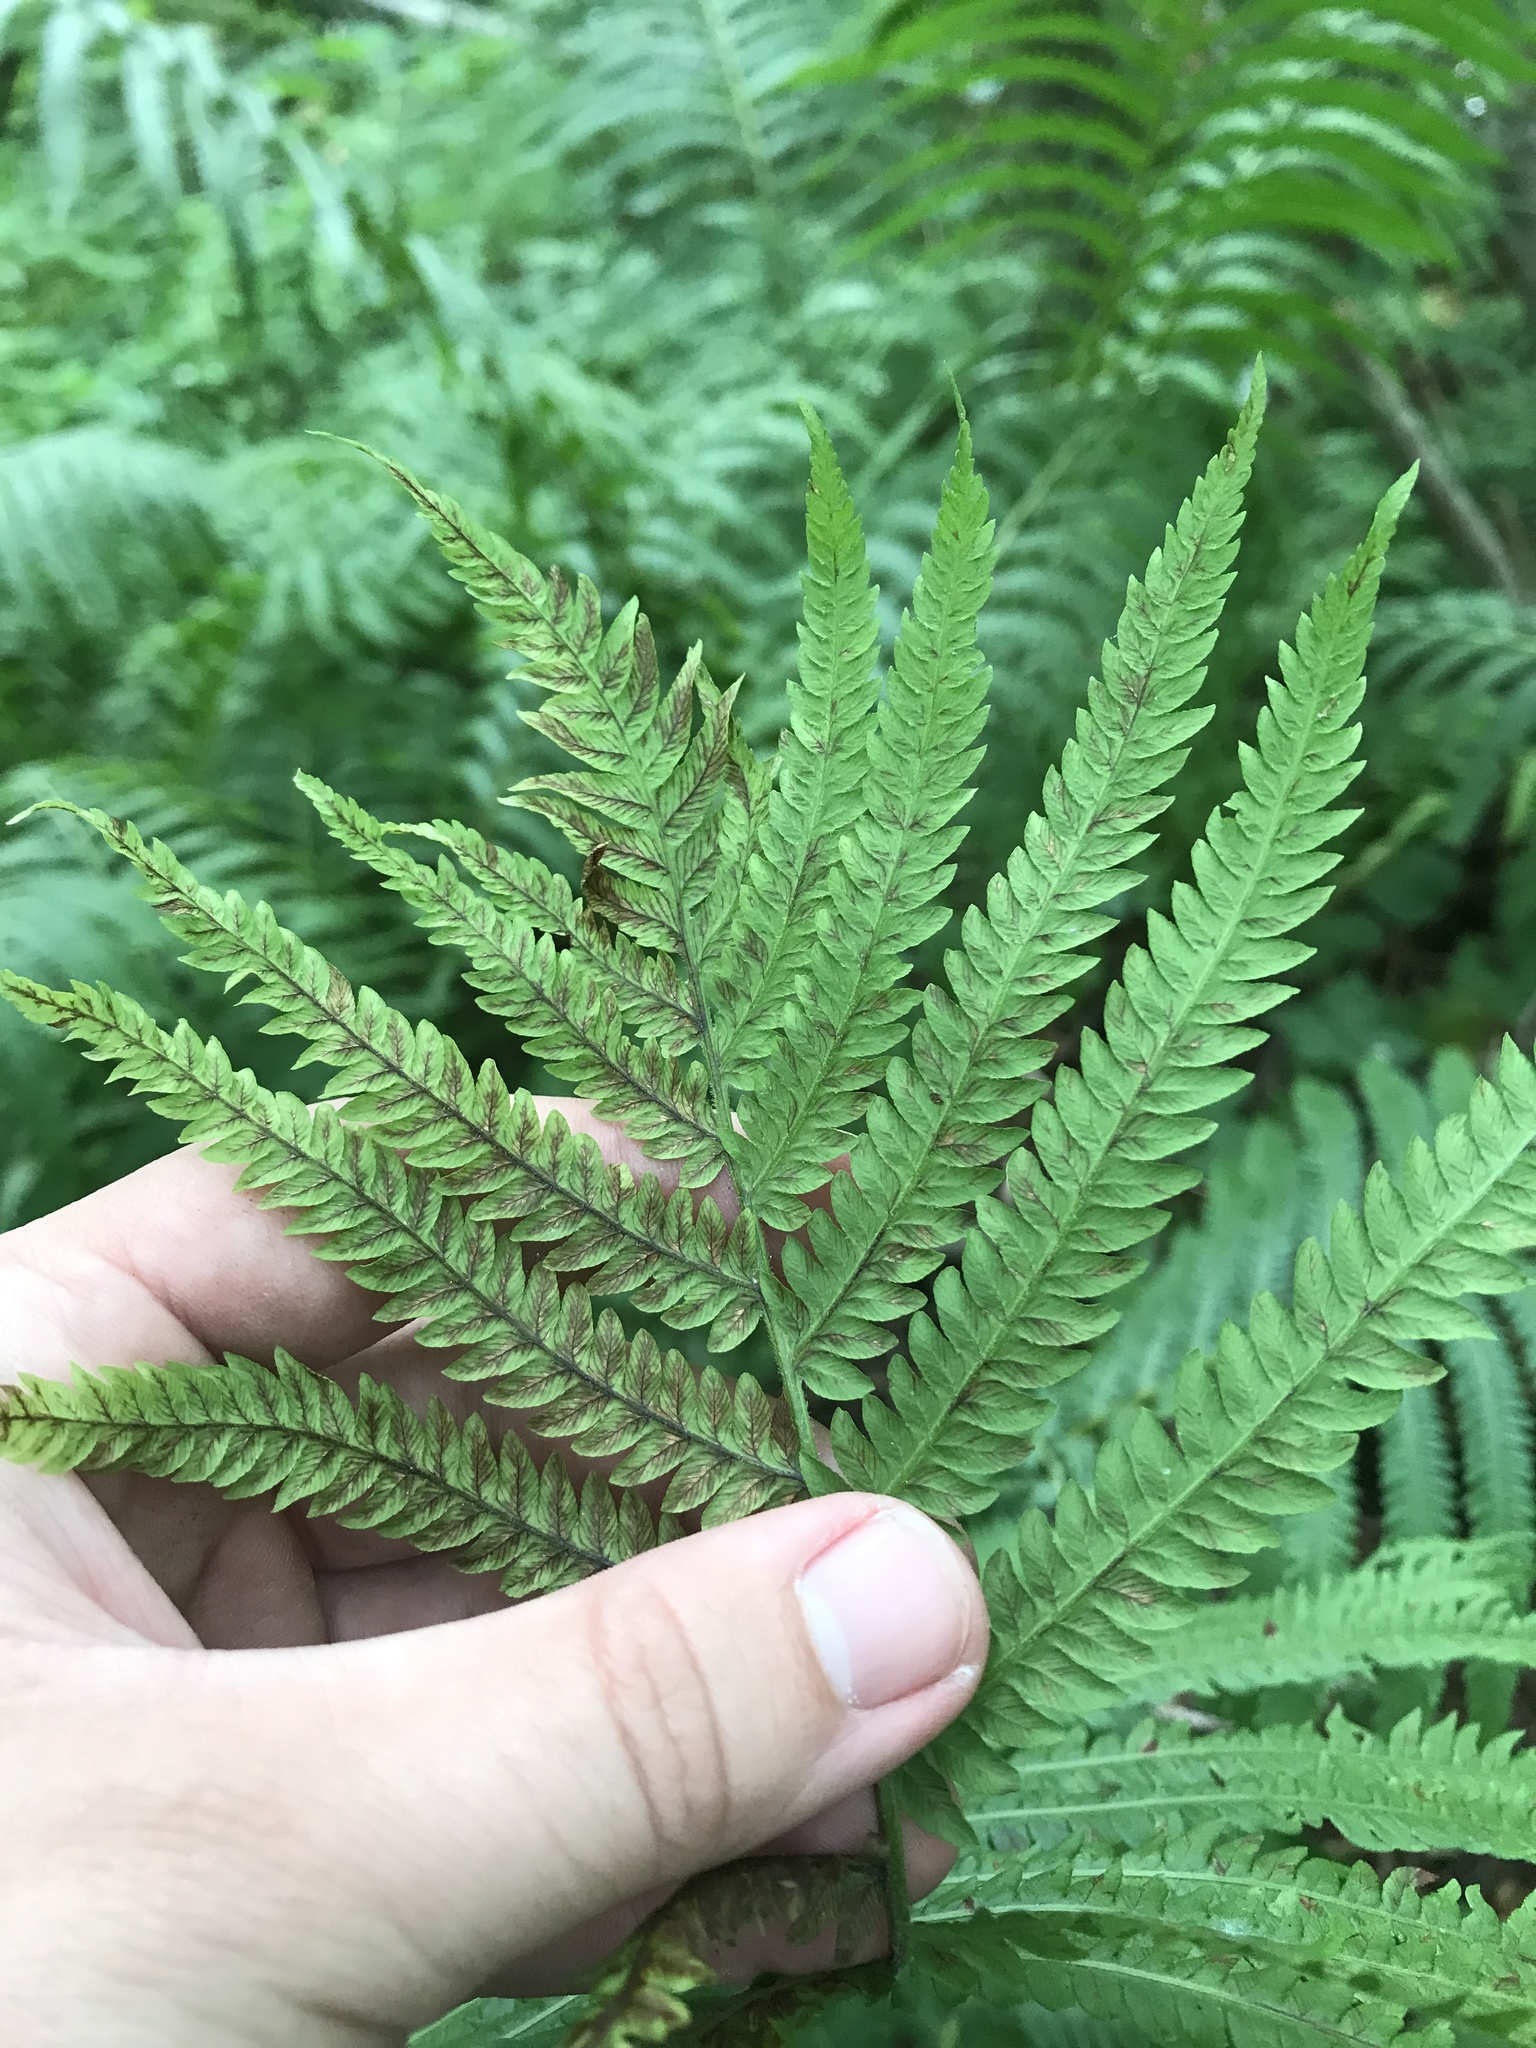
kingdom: Plantae
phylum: Tracheophyta
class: Polypodiopsida
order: Polypodiales
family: Onocleaceae
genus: Matteuccia
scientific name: Matteuccia struthiopteris
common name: Ostrich fern
